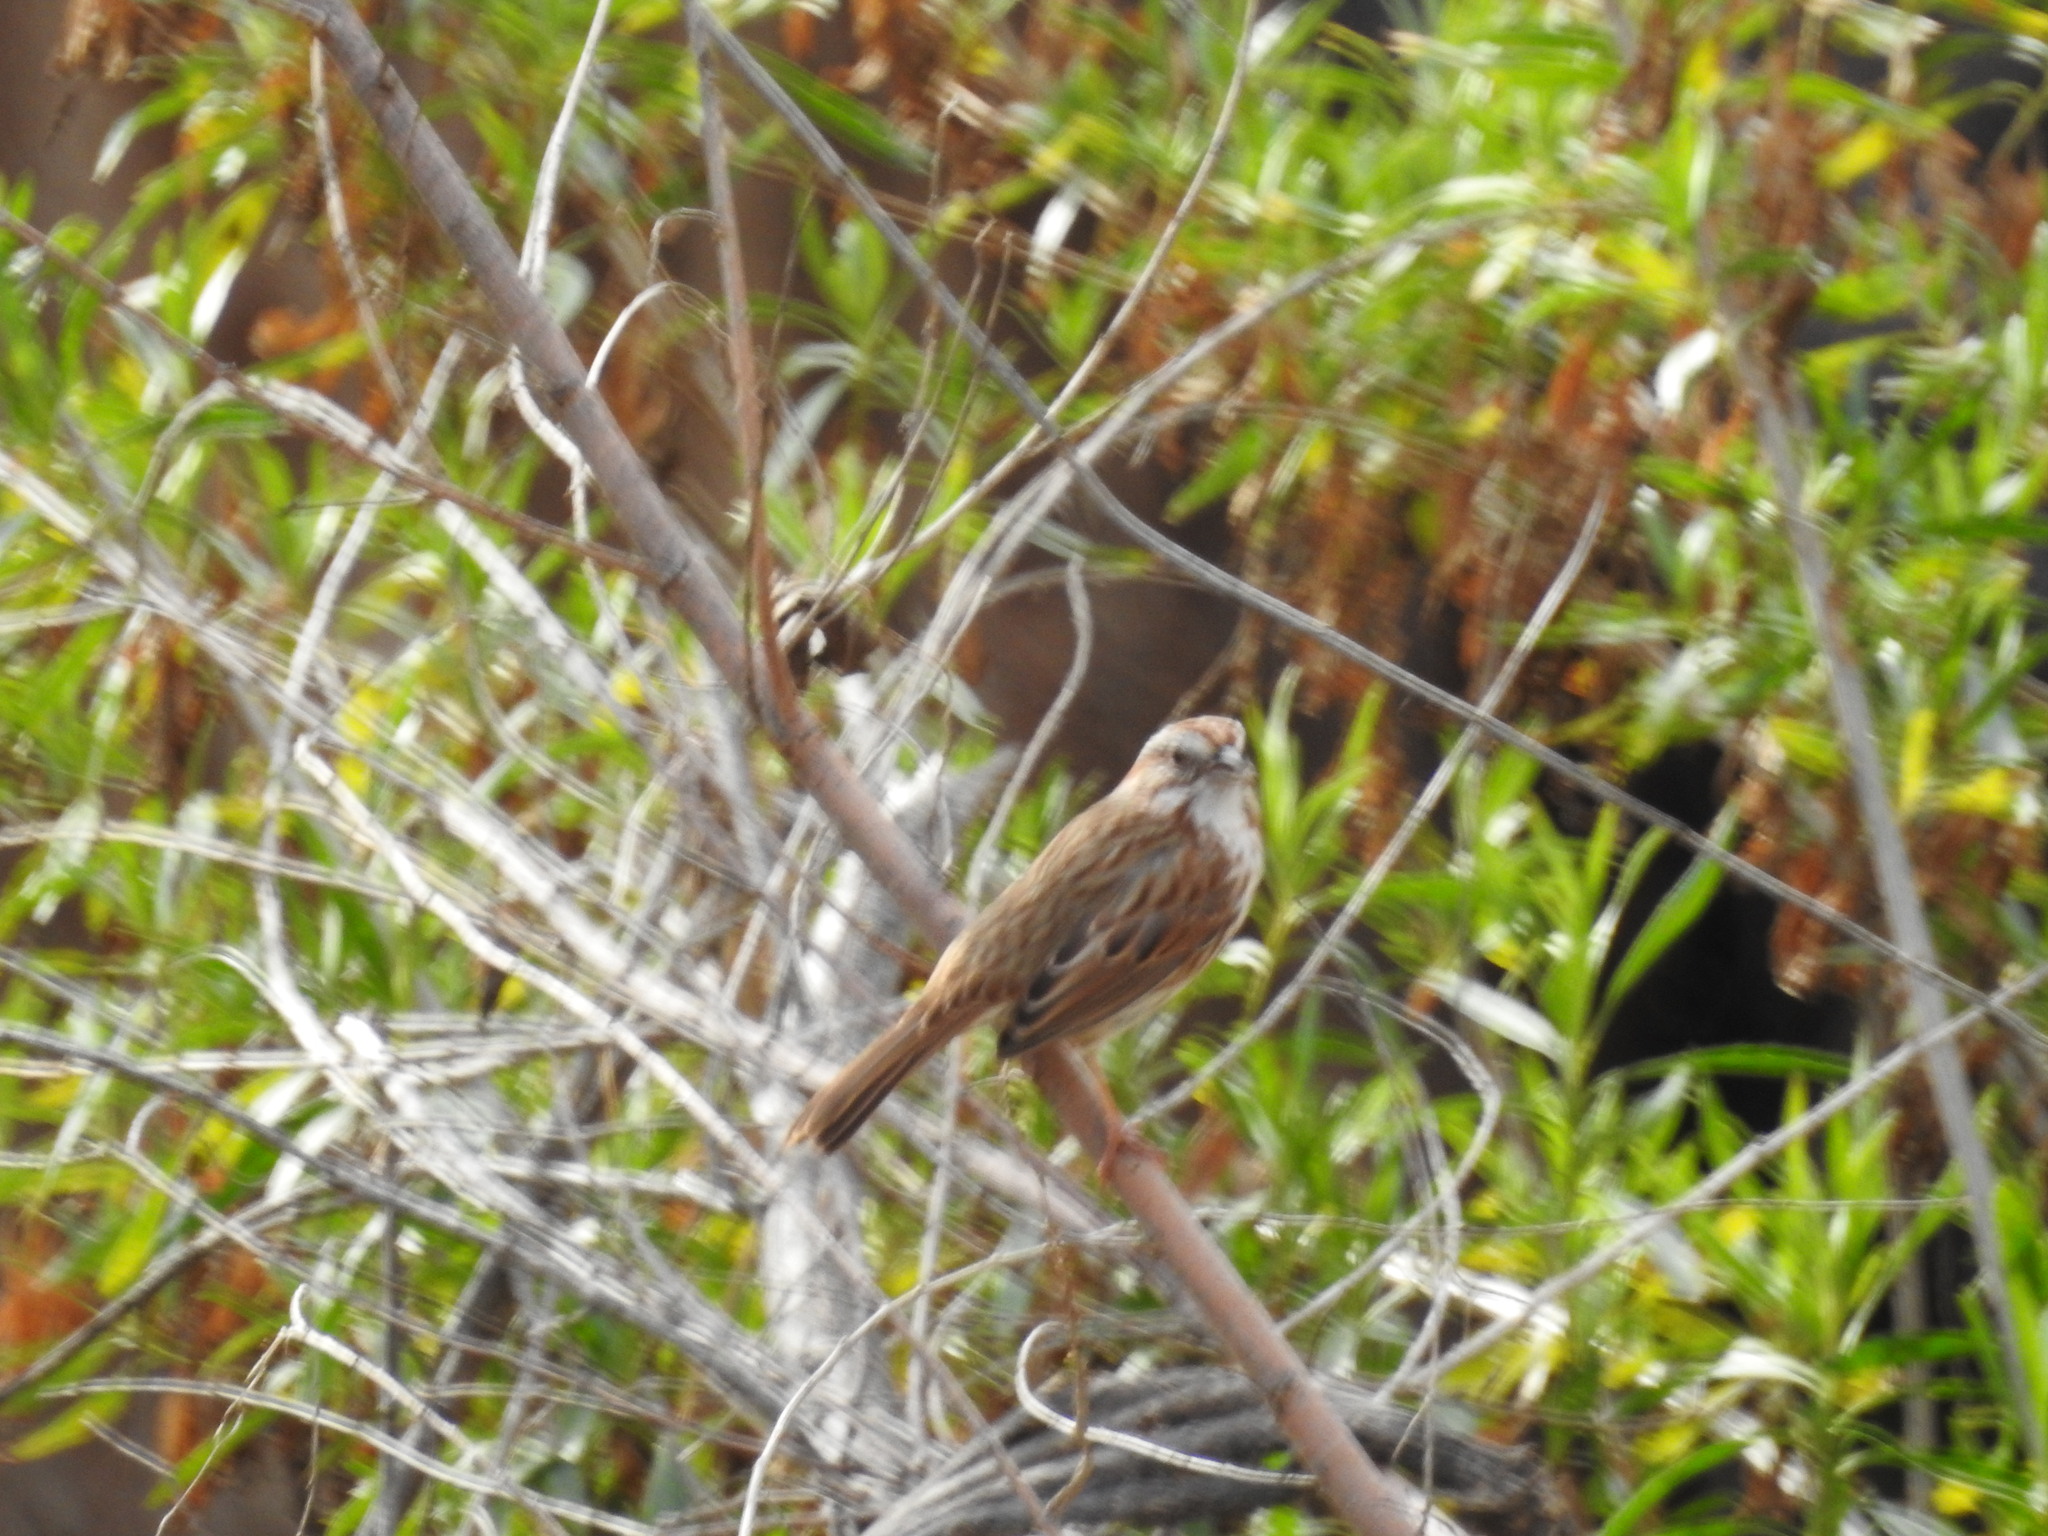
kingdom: Animalia
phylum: Chordata
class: Aves
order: Passeriformes
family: Passerellidae
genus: Melospiza
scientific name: Melospiza melodia
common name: Song sparrow
